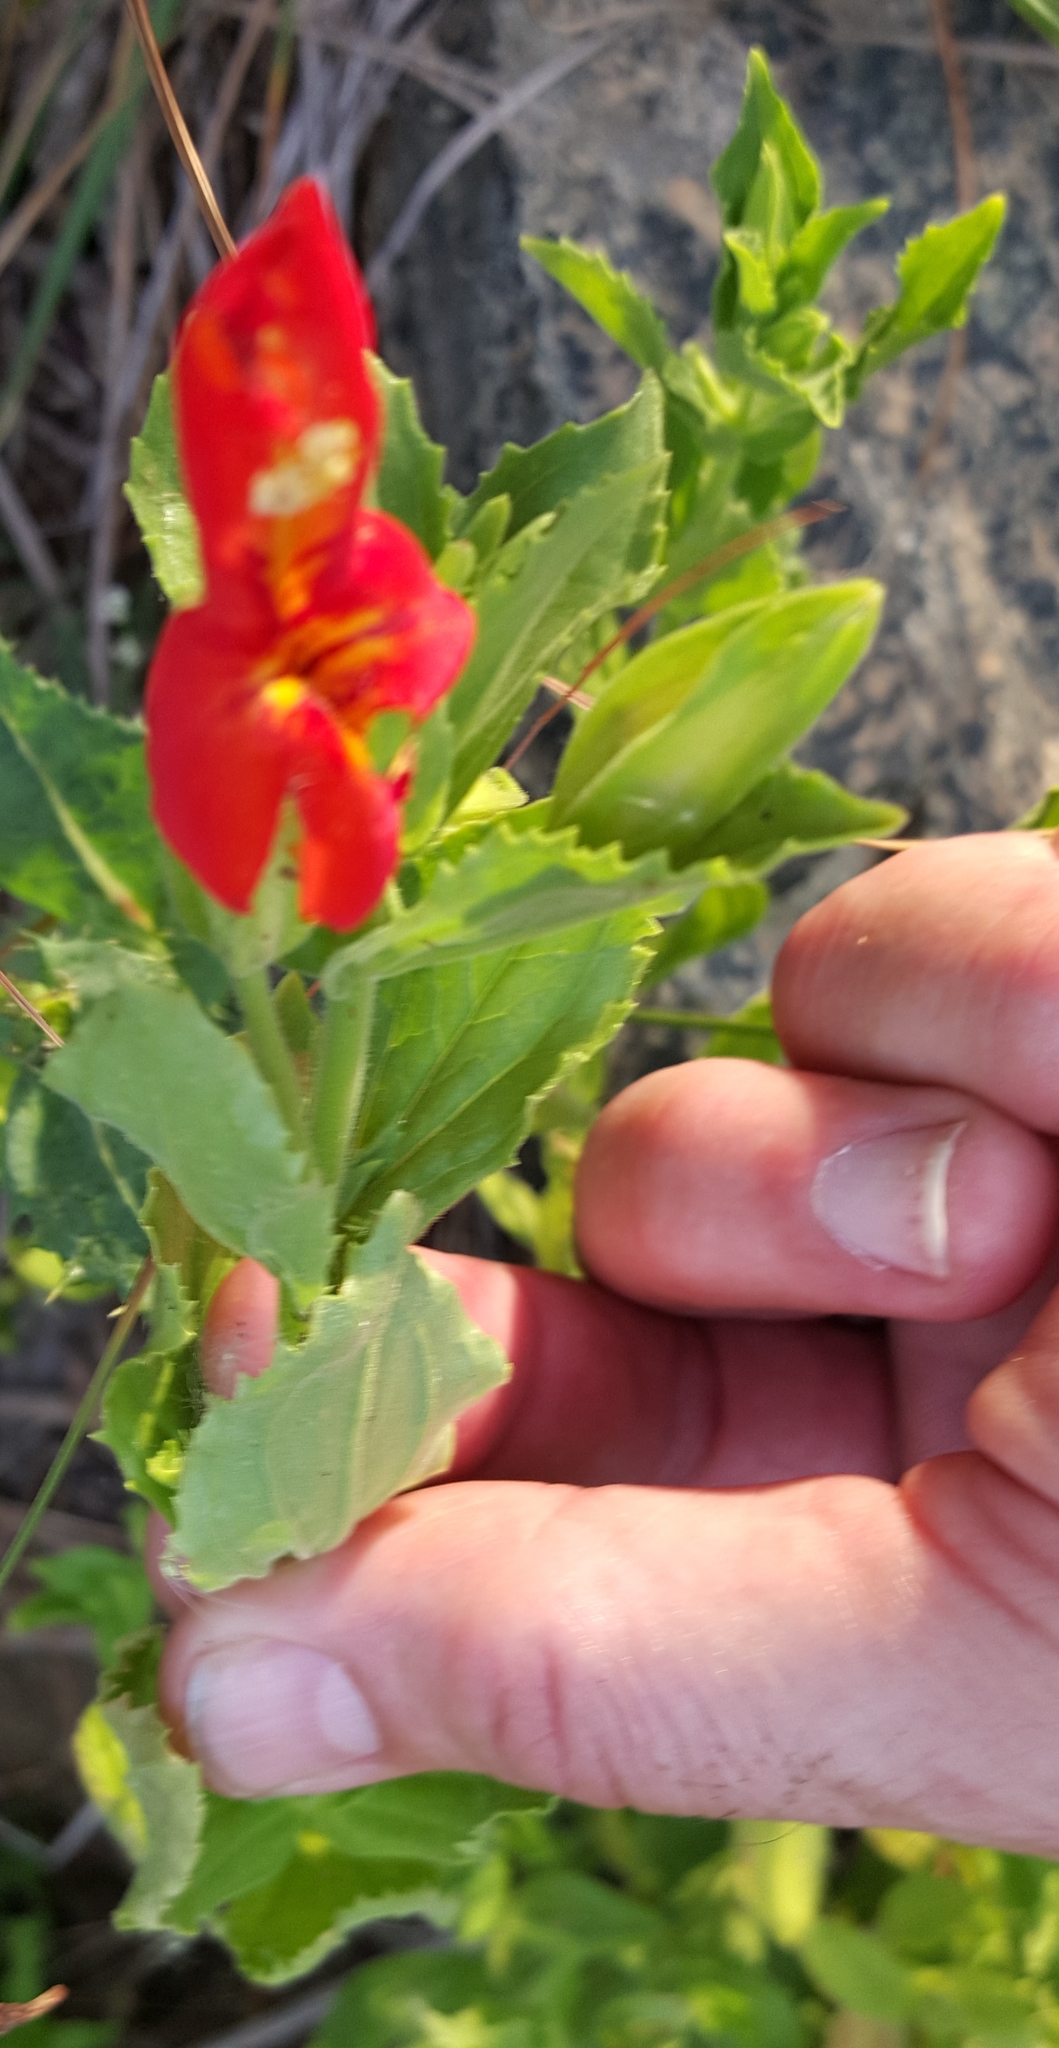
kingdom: Plantae
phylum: Tracheophyta
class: Magnoliopsida
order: Lamiales
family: Phrymaceae
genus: Erythranthe
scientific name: Erythranthe cardinalis
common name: Scarlet monkey-flower
